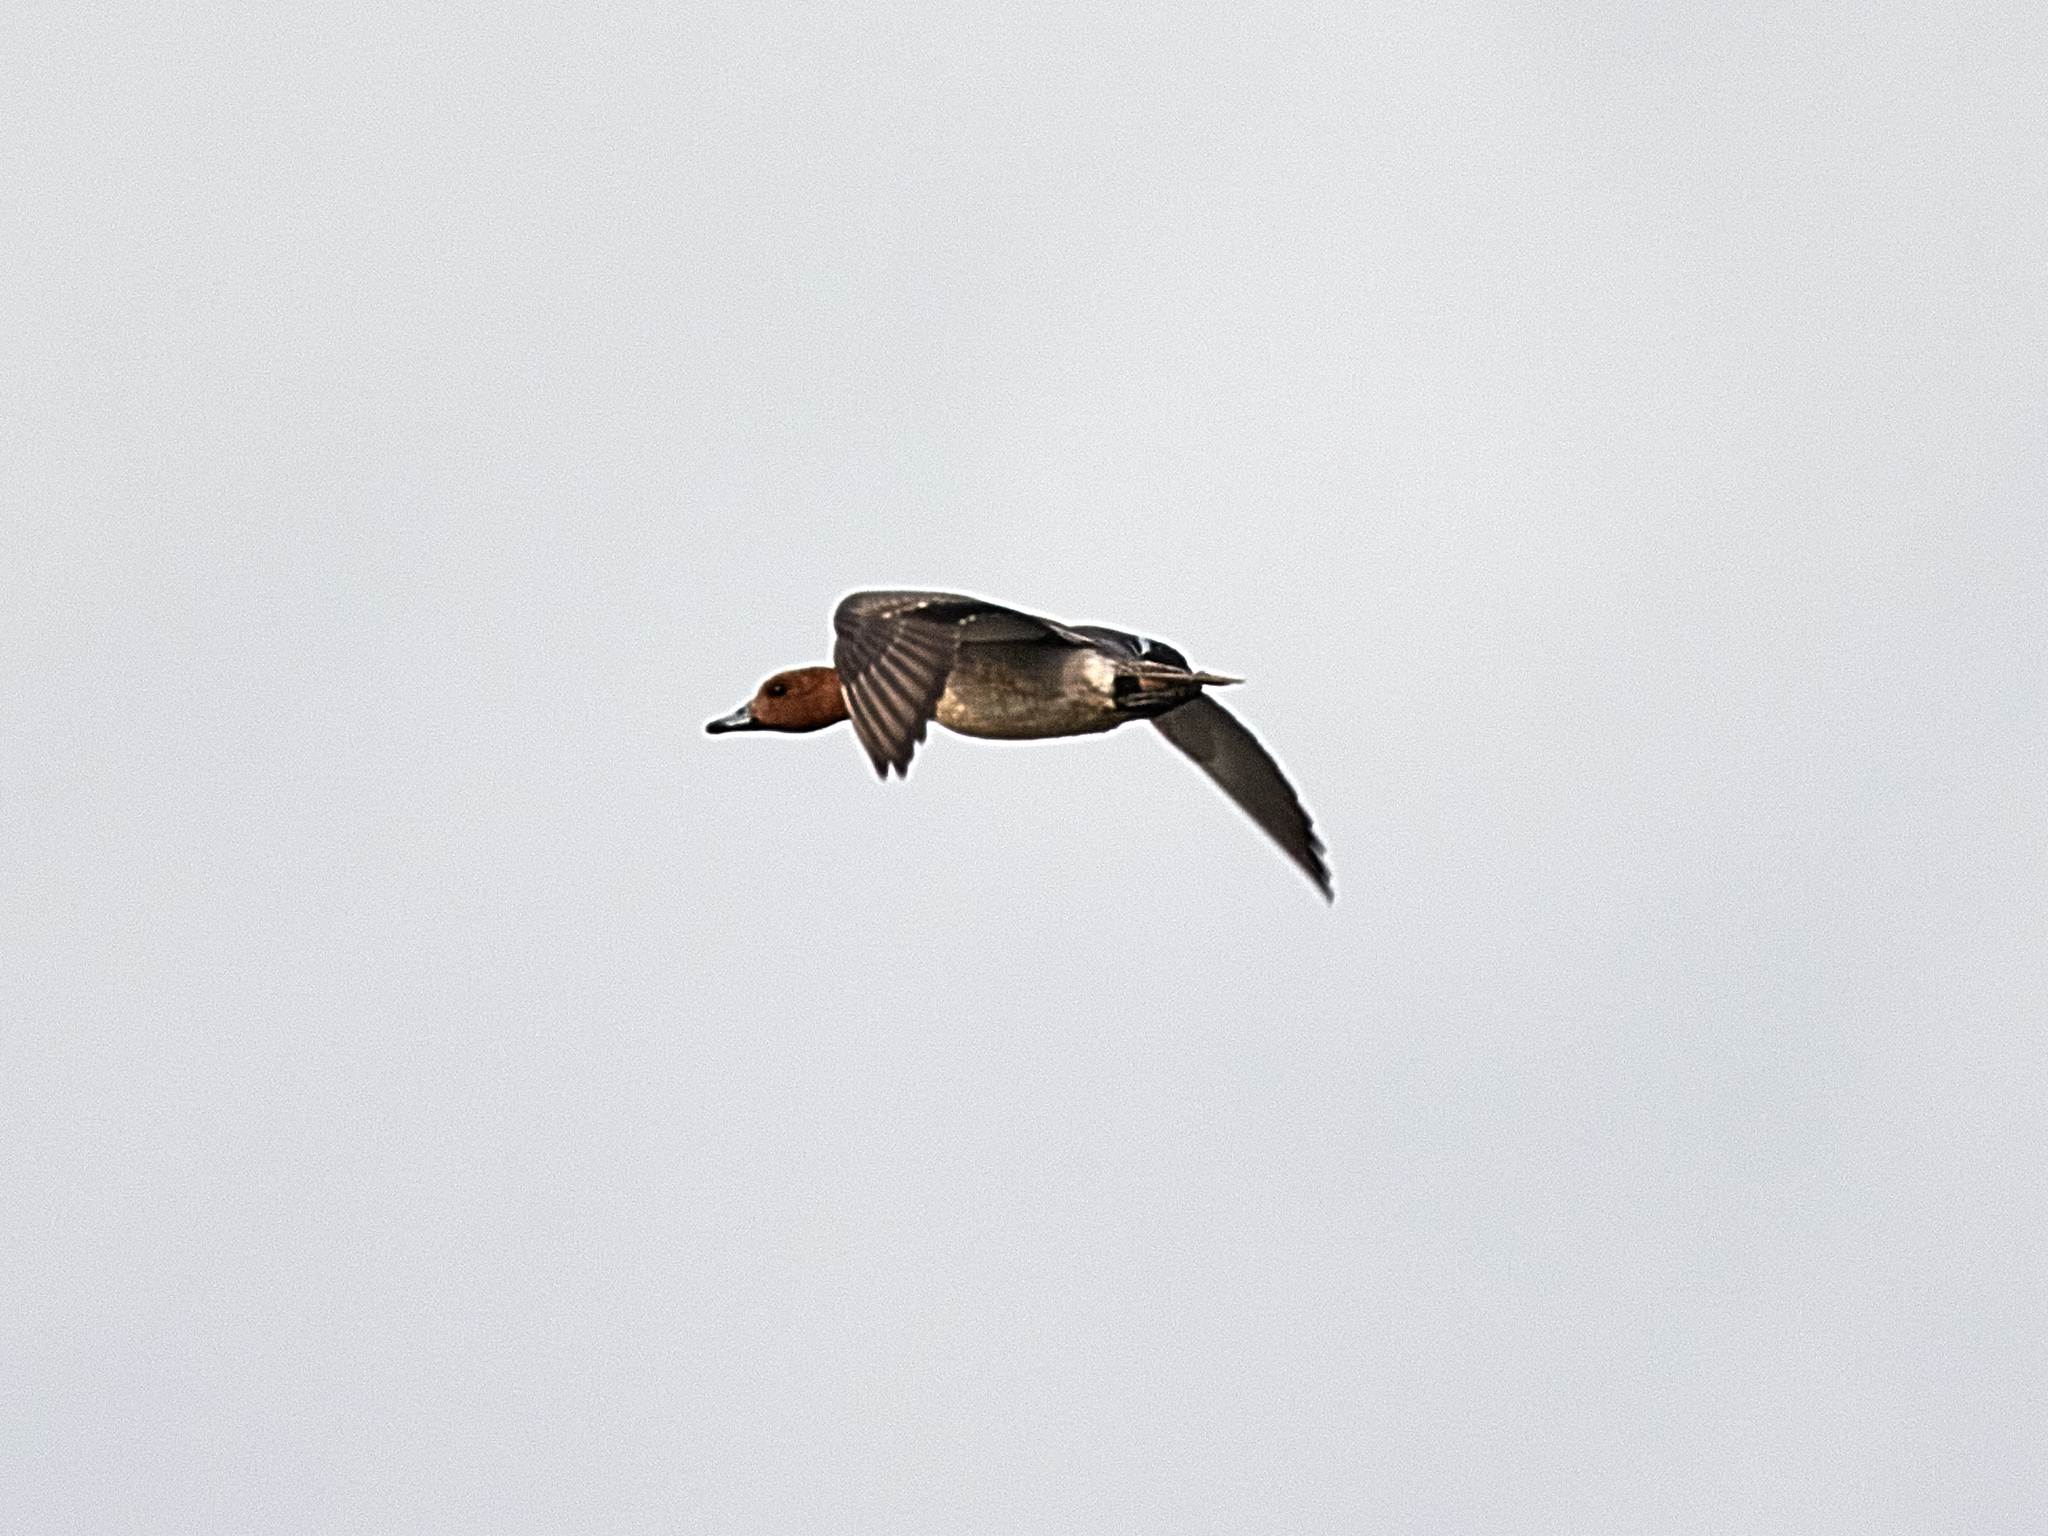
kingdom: Animalia
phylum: Chordata
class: Aves
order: Anseriformes
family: Anatidae
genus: Mareca
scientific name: Mareca penelope
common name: Eurasian wigeon
